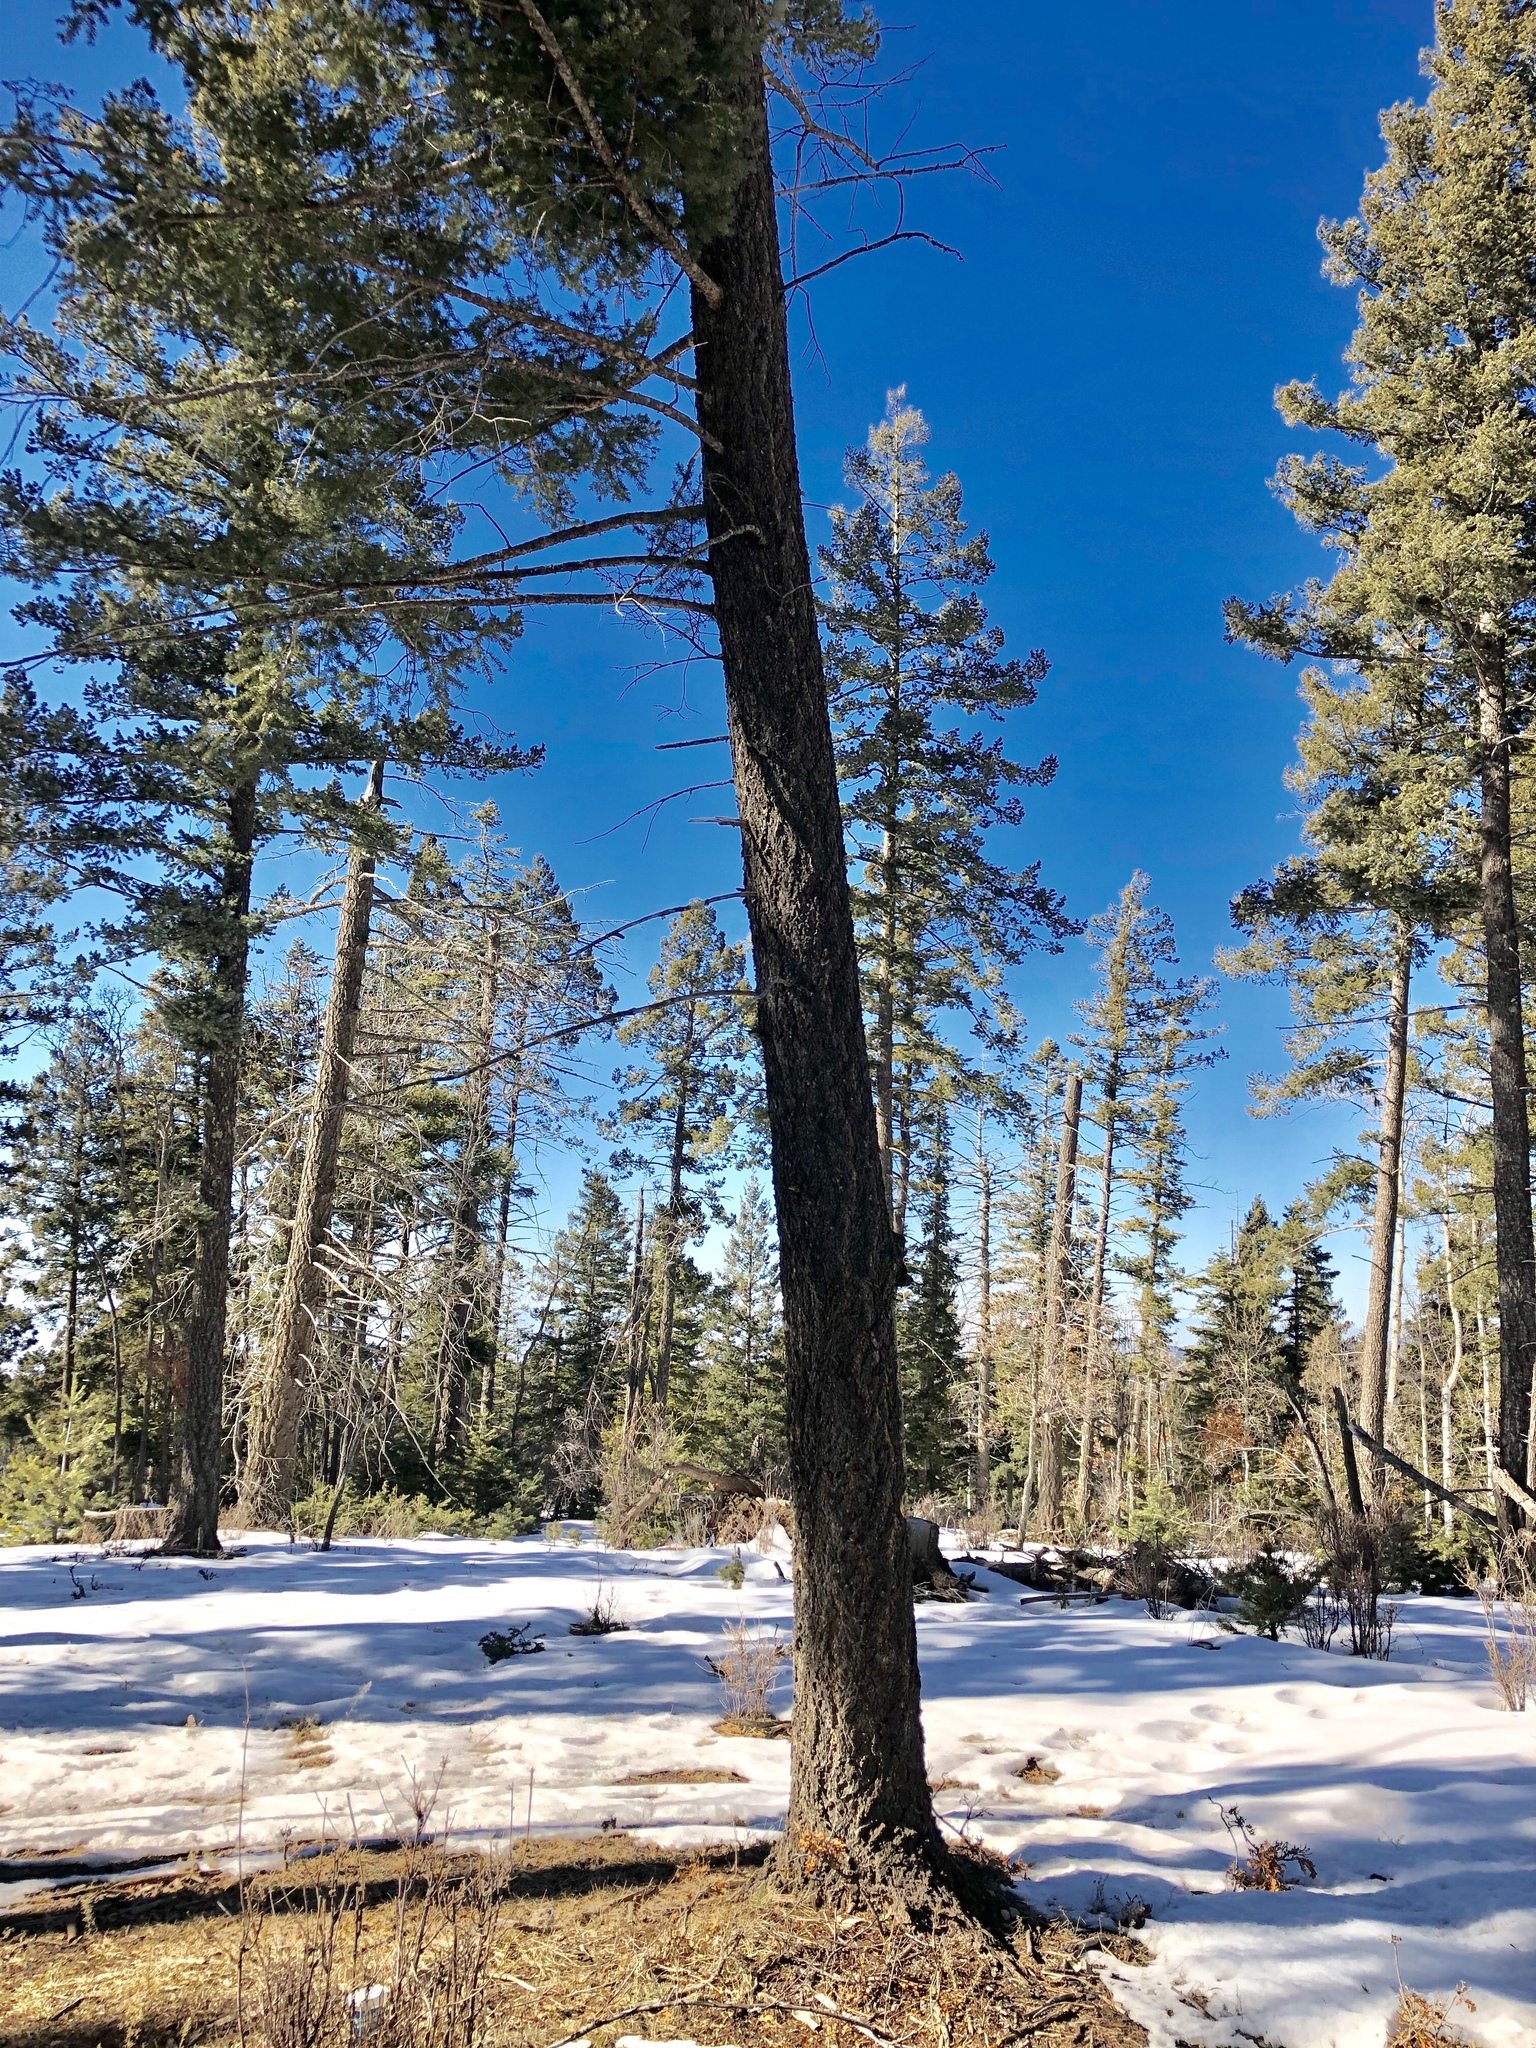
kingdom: Plantae
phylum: Tracheophyta
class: Pinopsida
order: Pinales
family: Pinaceae
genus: Pseudotsuga
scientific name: Pseudotsuga menziesii
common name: Douglas fir
